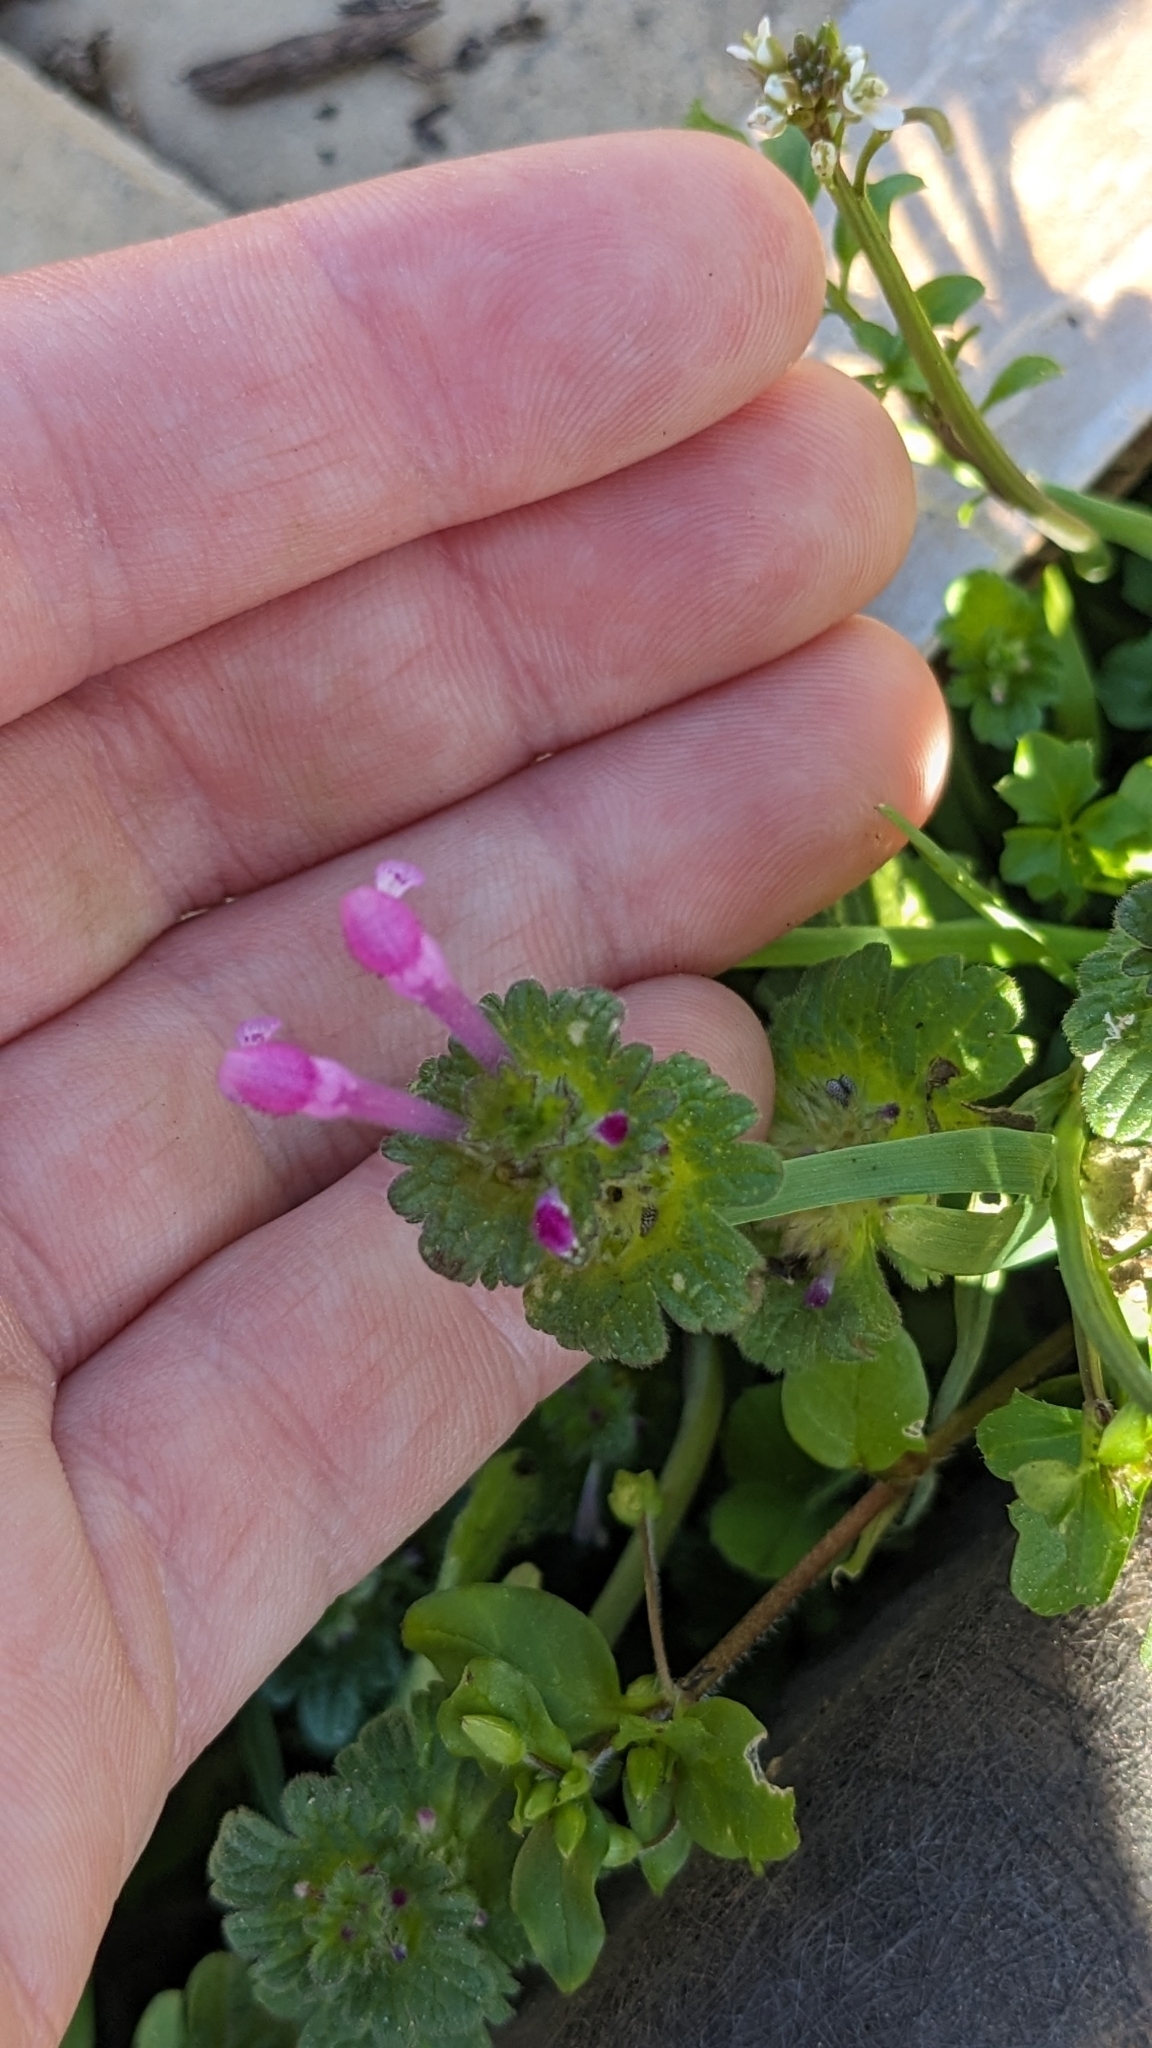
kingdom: Plantae
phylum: Tracheophyta
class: Magnoliopsida
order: Lamiales
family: Lamiaceae
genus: Lamium
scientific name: Lamium amplexicaule
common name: Henbit dead-nettle
